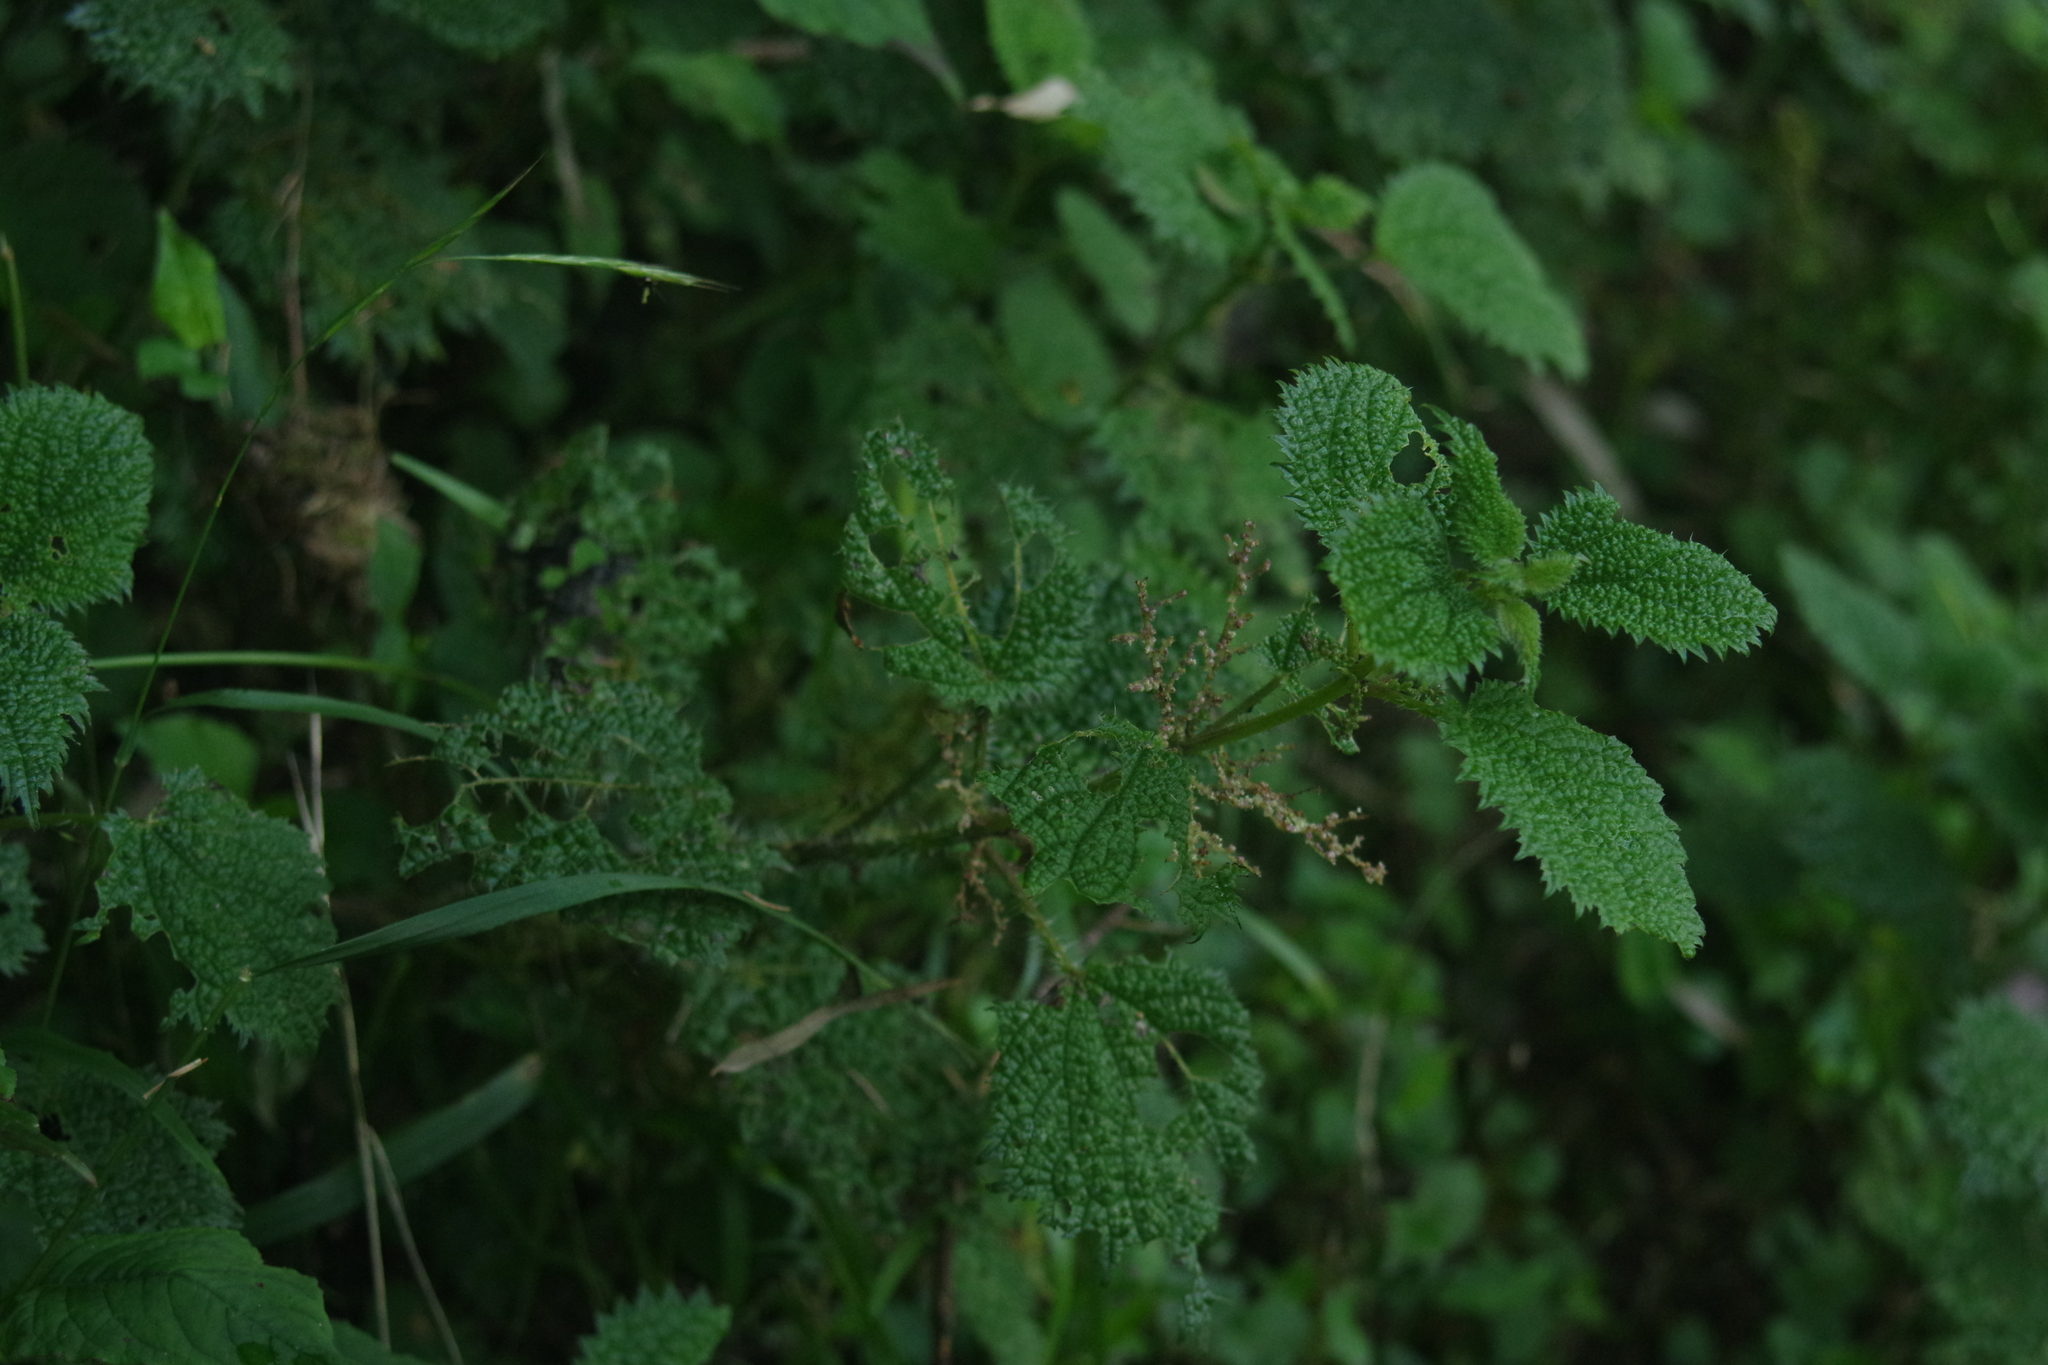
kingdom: Plantae
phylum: Tracheophyta
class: Magnoliopsida
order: Rosales
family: Urticaceae
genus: Urtica
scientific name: Urtica thunbergiana
